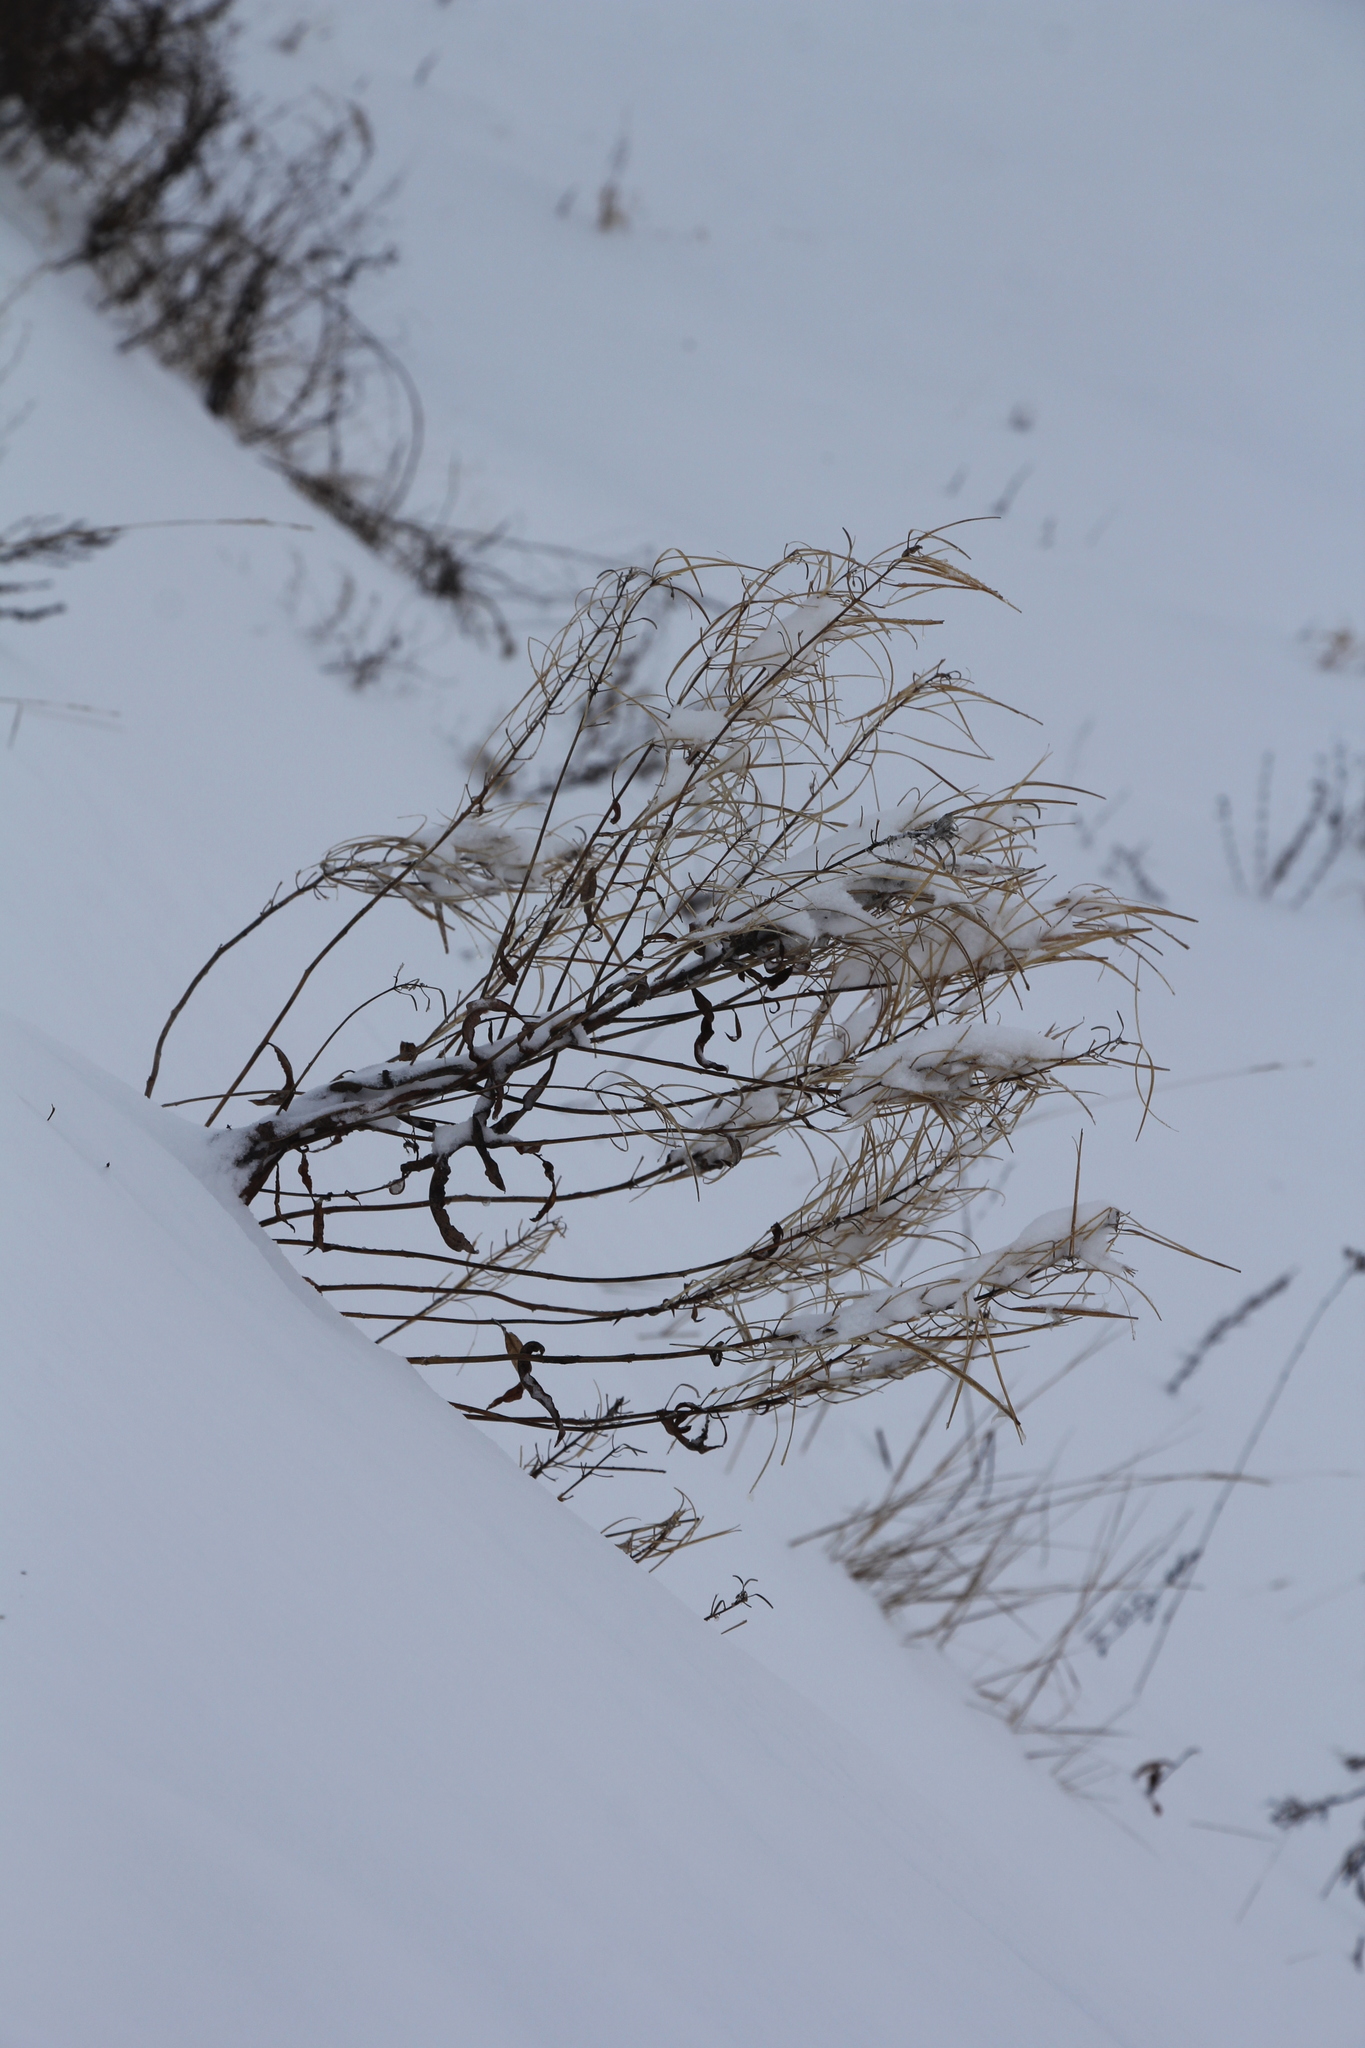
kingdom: Plantae
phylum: Tracheophyta
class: Magnoliopsida
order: Myrtales
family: Onagraceae
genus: Chamaenerion
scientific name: Chamaenerion angustifolium
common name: Fireweed
